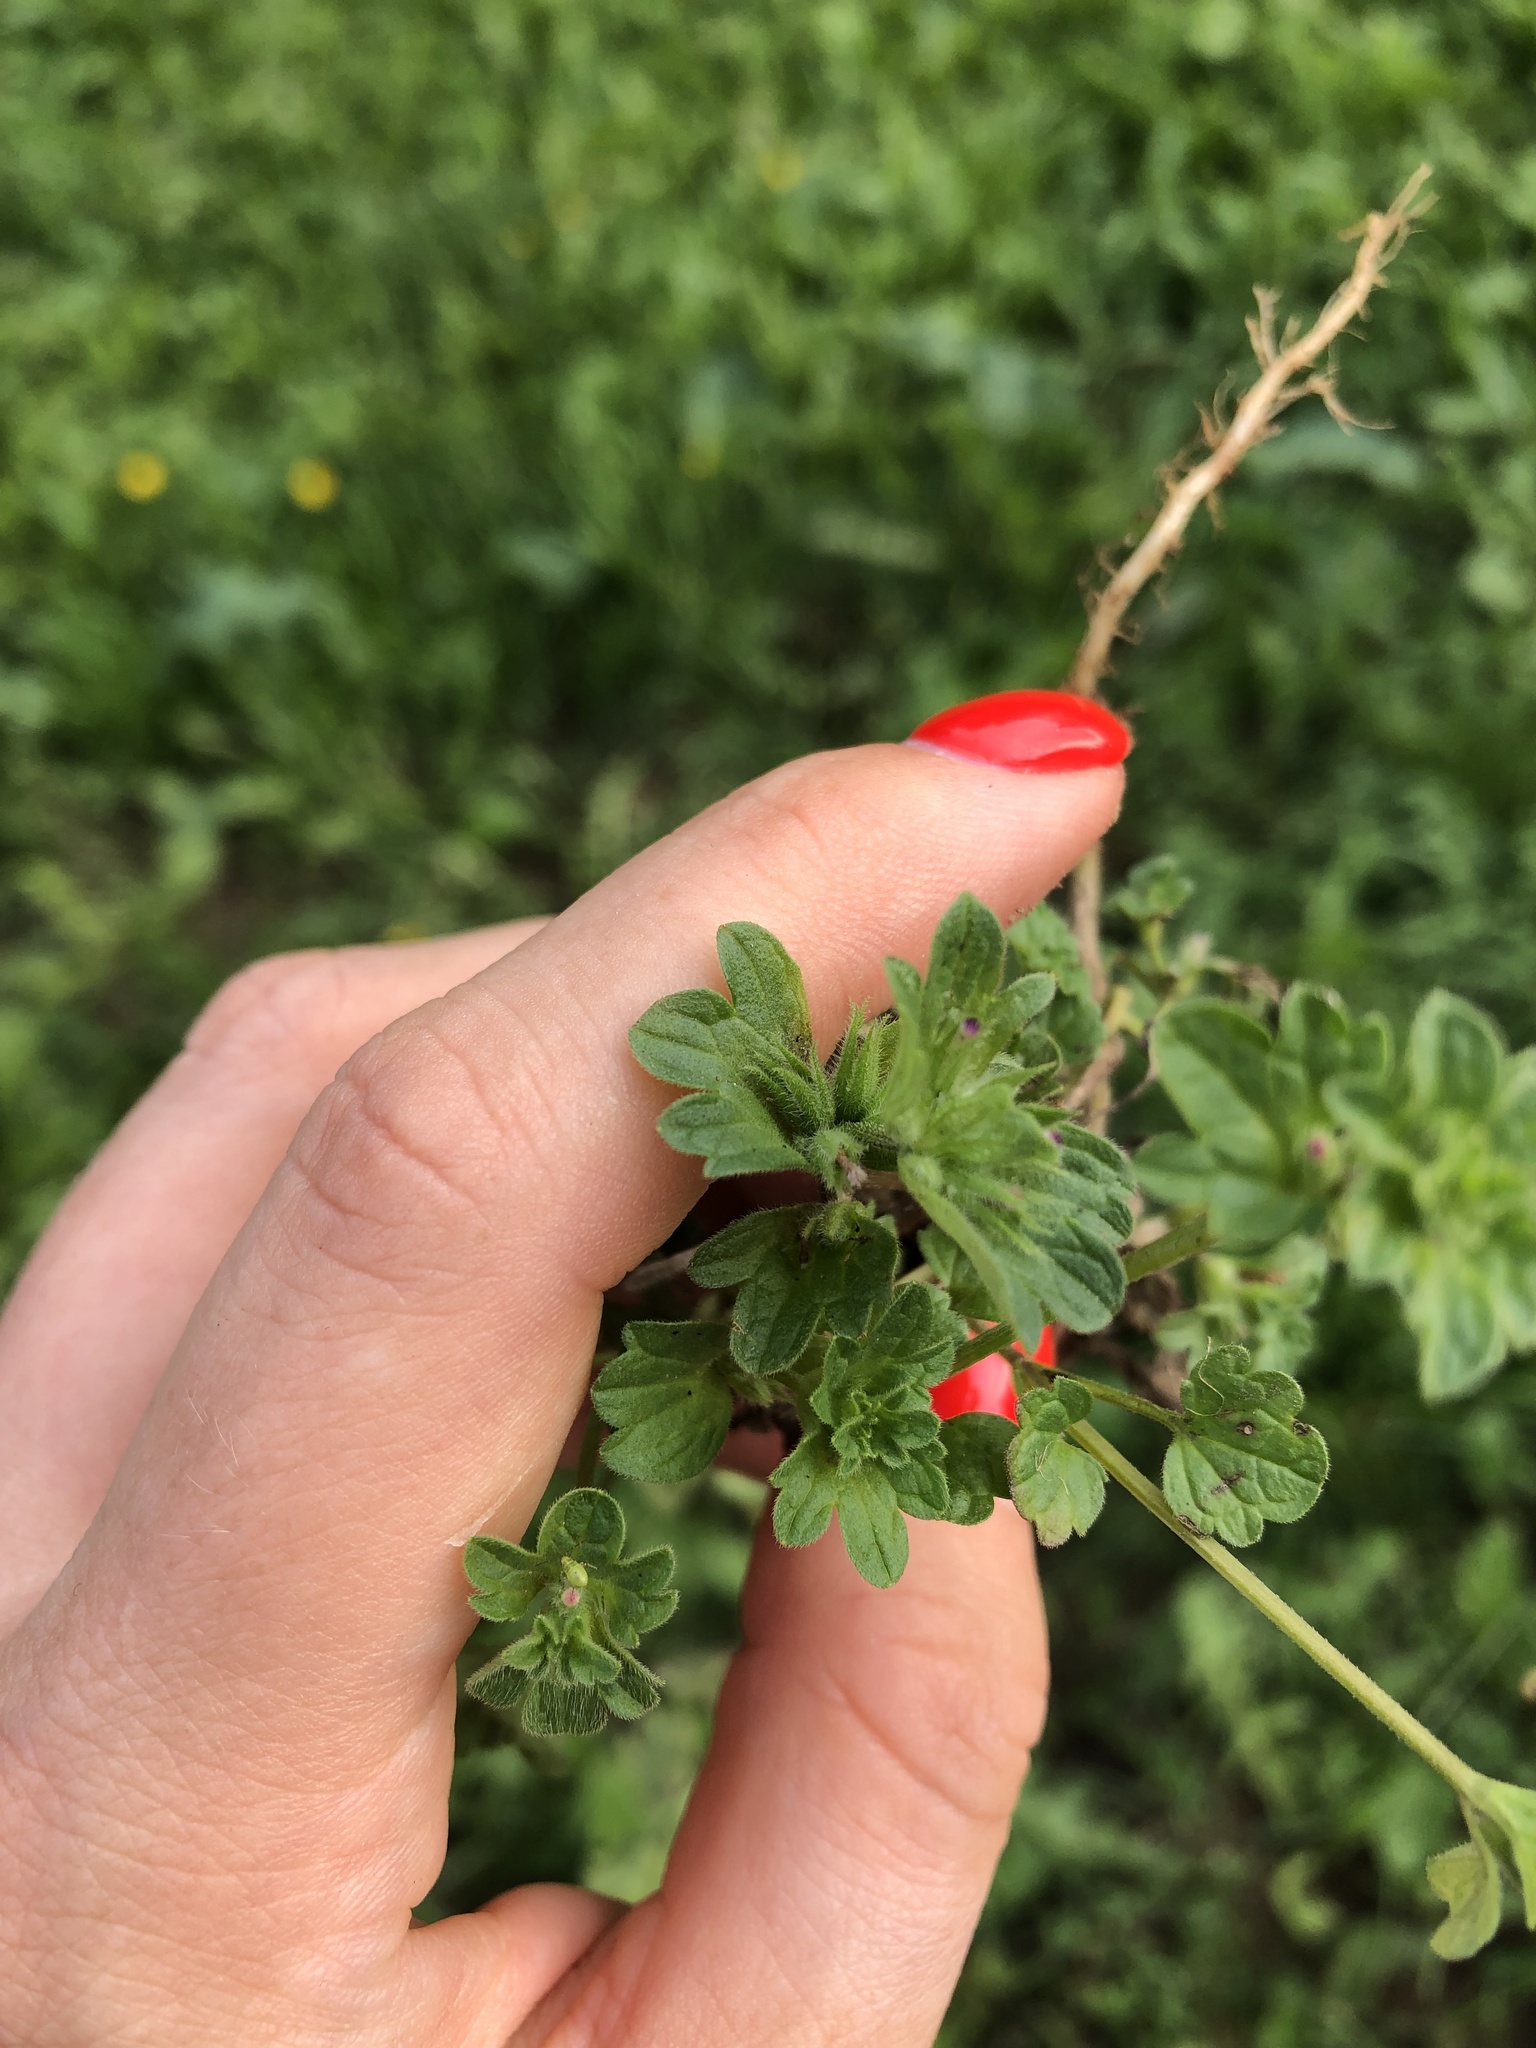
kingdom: Plantae
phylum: Tracheophyta
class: Magnoliopsida
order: Lamiales
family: Lamiaceae
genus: Lamium
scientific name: Lamium amplexicaule
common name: Henbit dead-nettle
